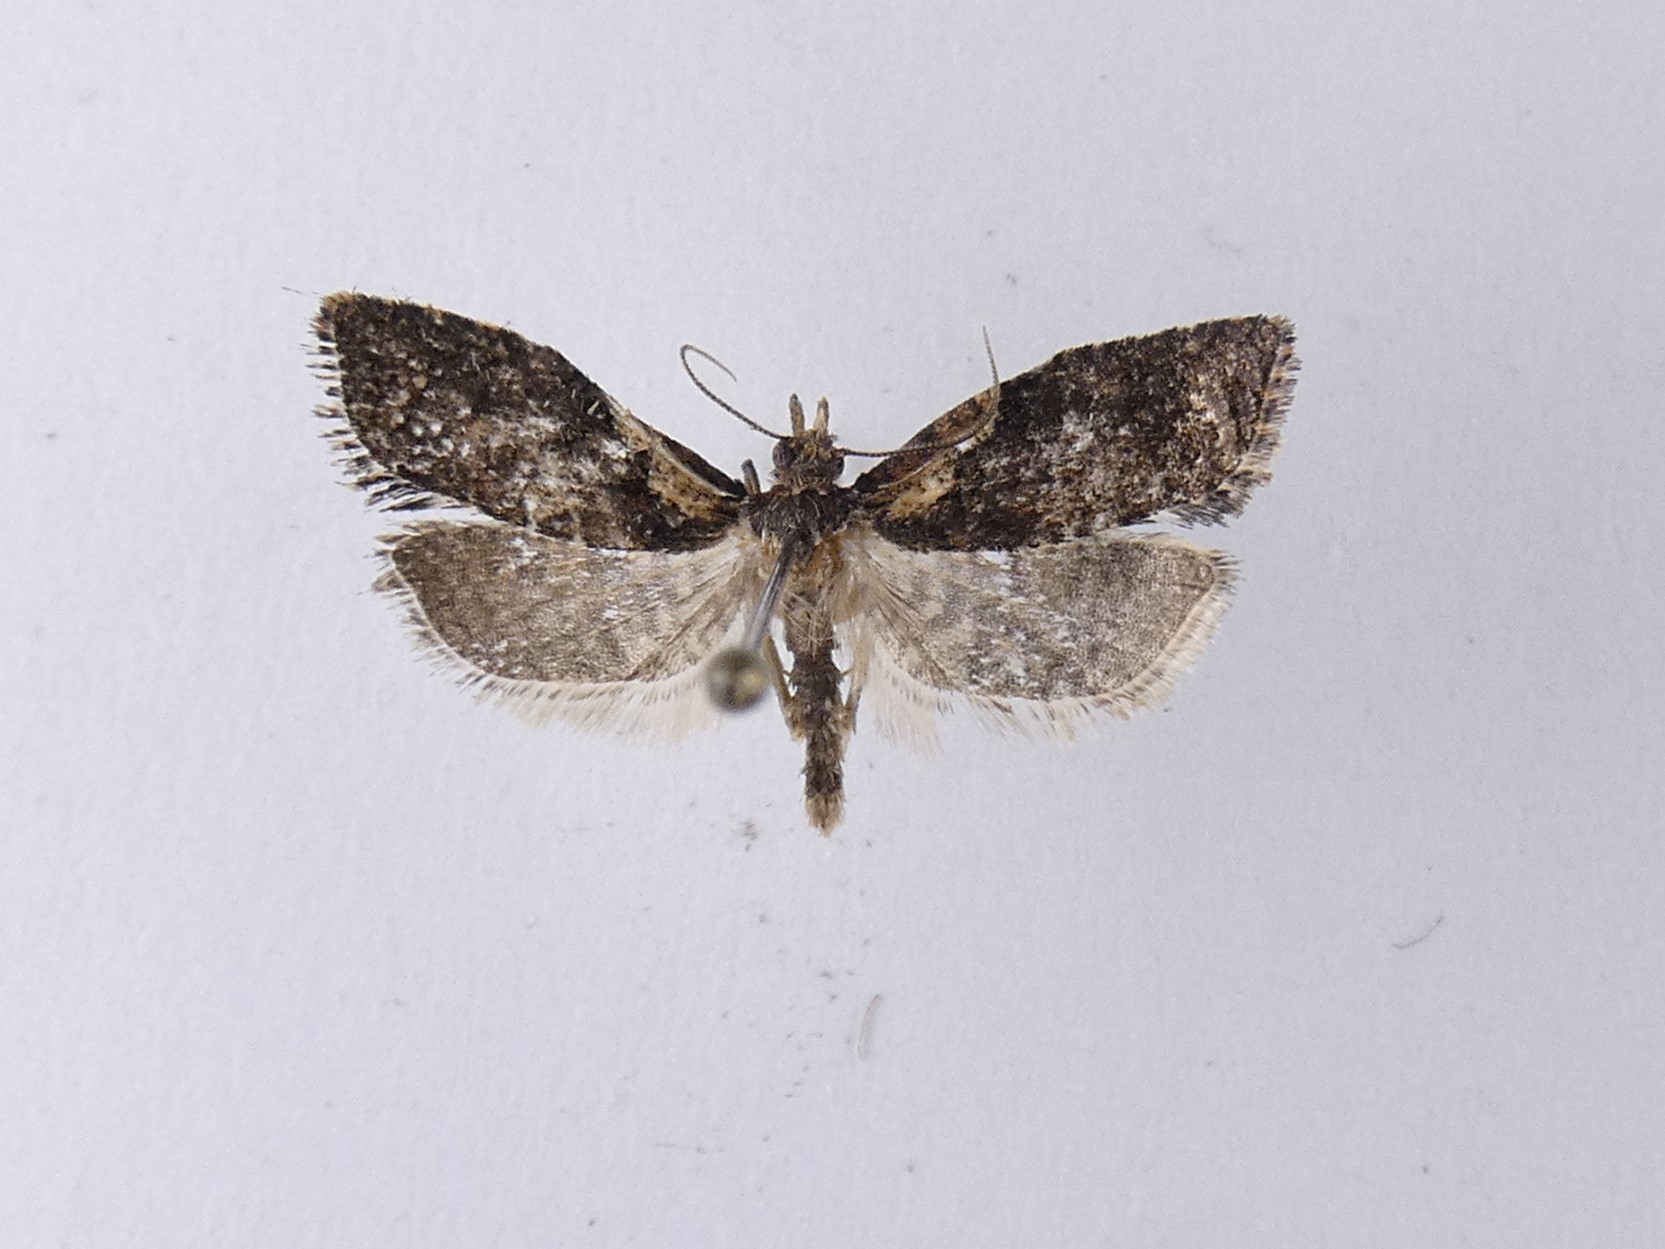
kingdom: Animalia
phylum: Arthropoda
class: Insecta
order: Lepidoptera
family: Tortricidae
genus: Capua
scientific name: Capua intractana
